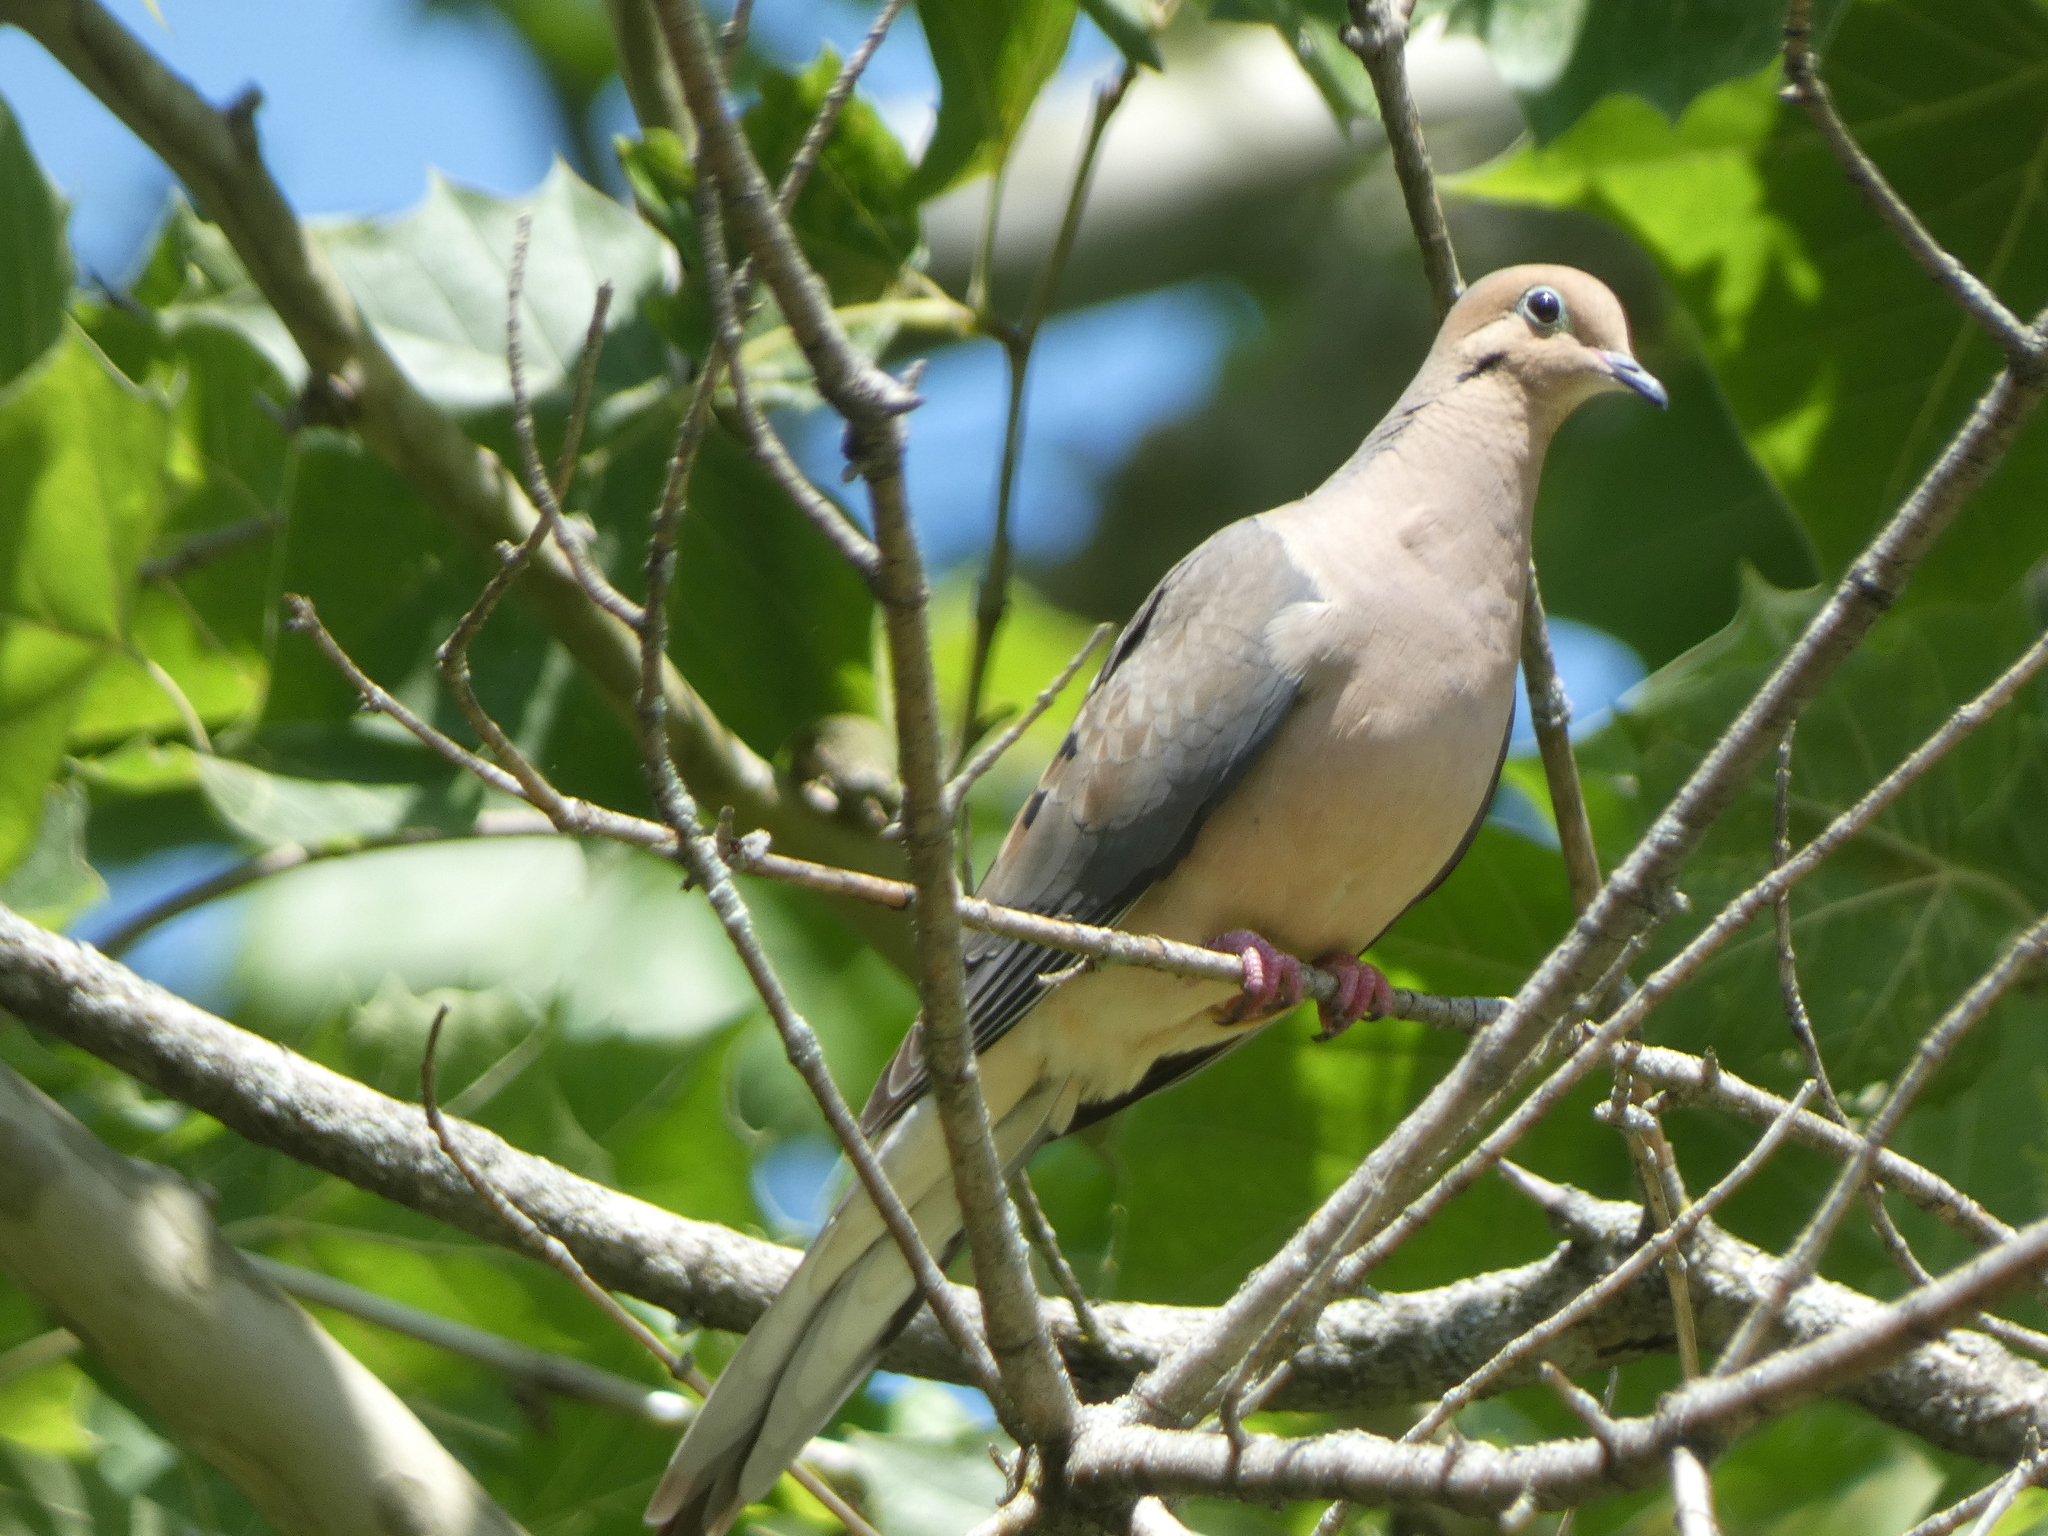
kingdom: Animalia
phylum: Chordata
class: Aves
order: Columbiformes
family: Columbidae
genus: Zenaida
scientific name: Zenaida macroura
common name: Mourning dove
